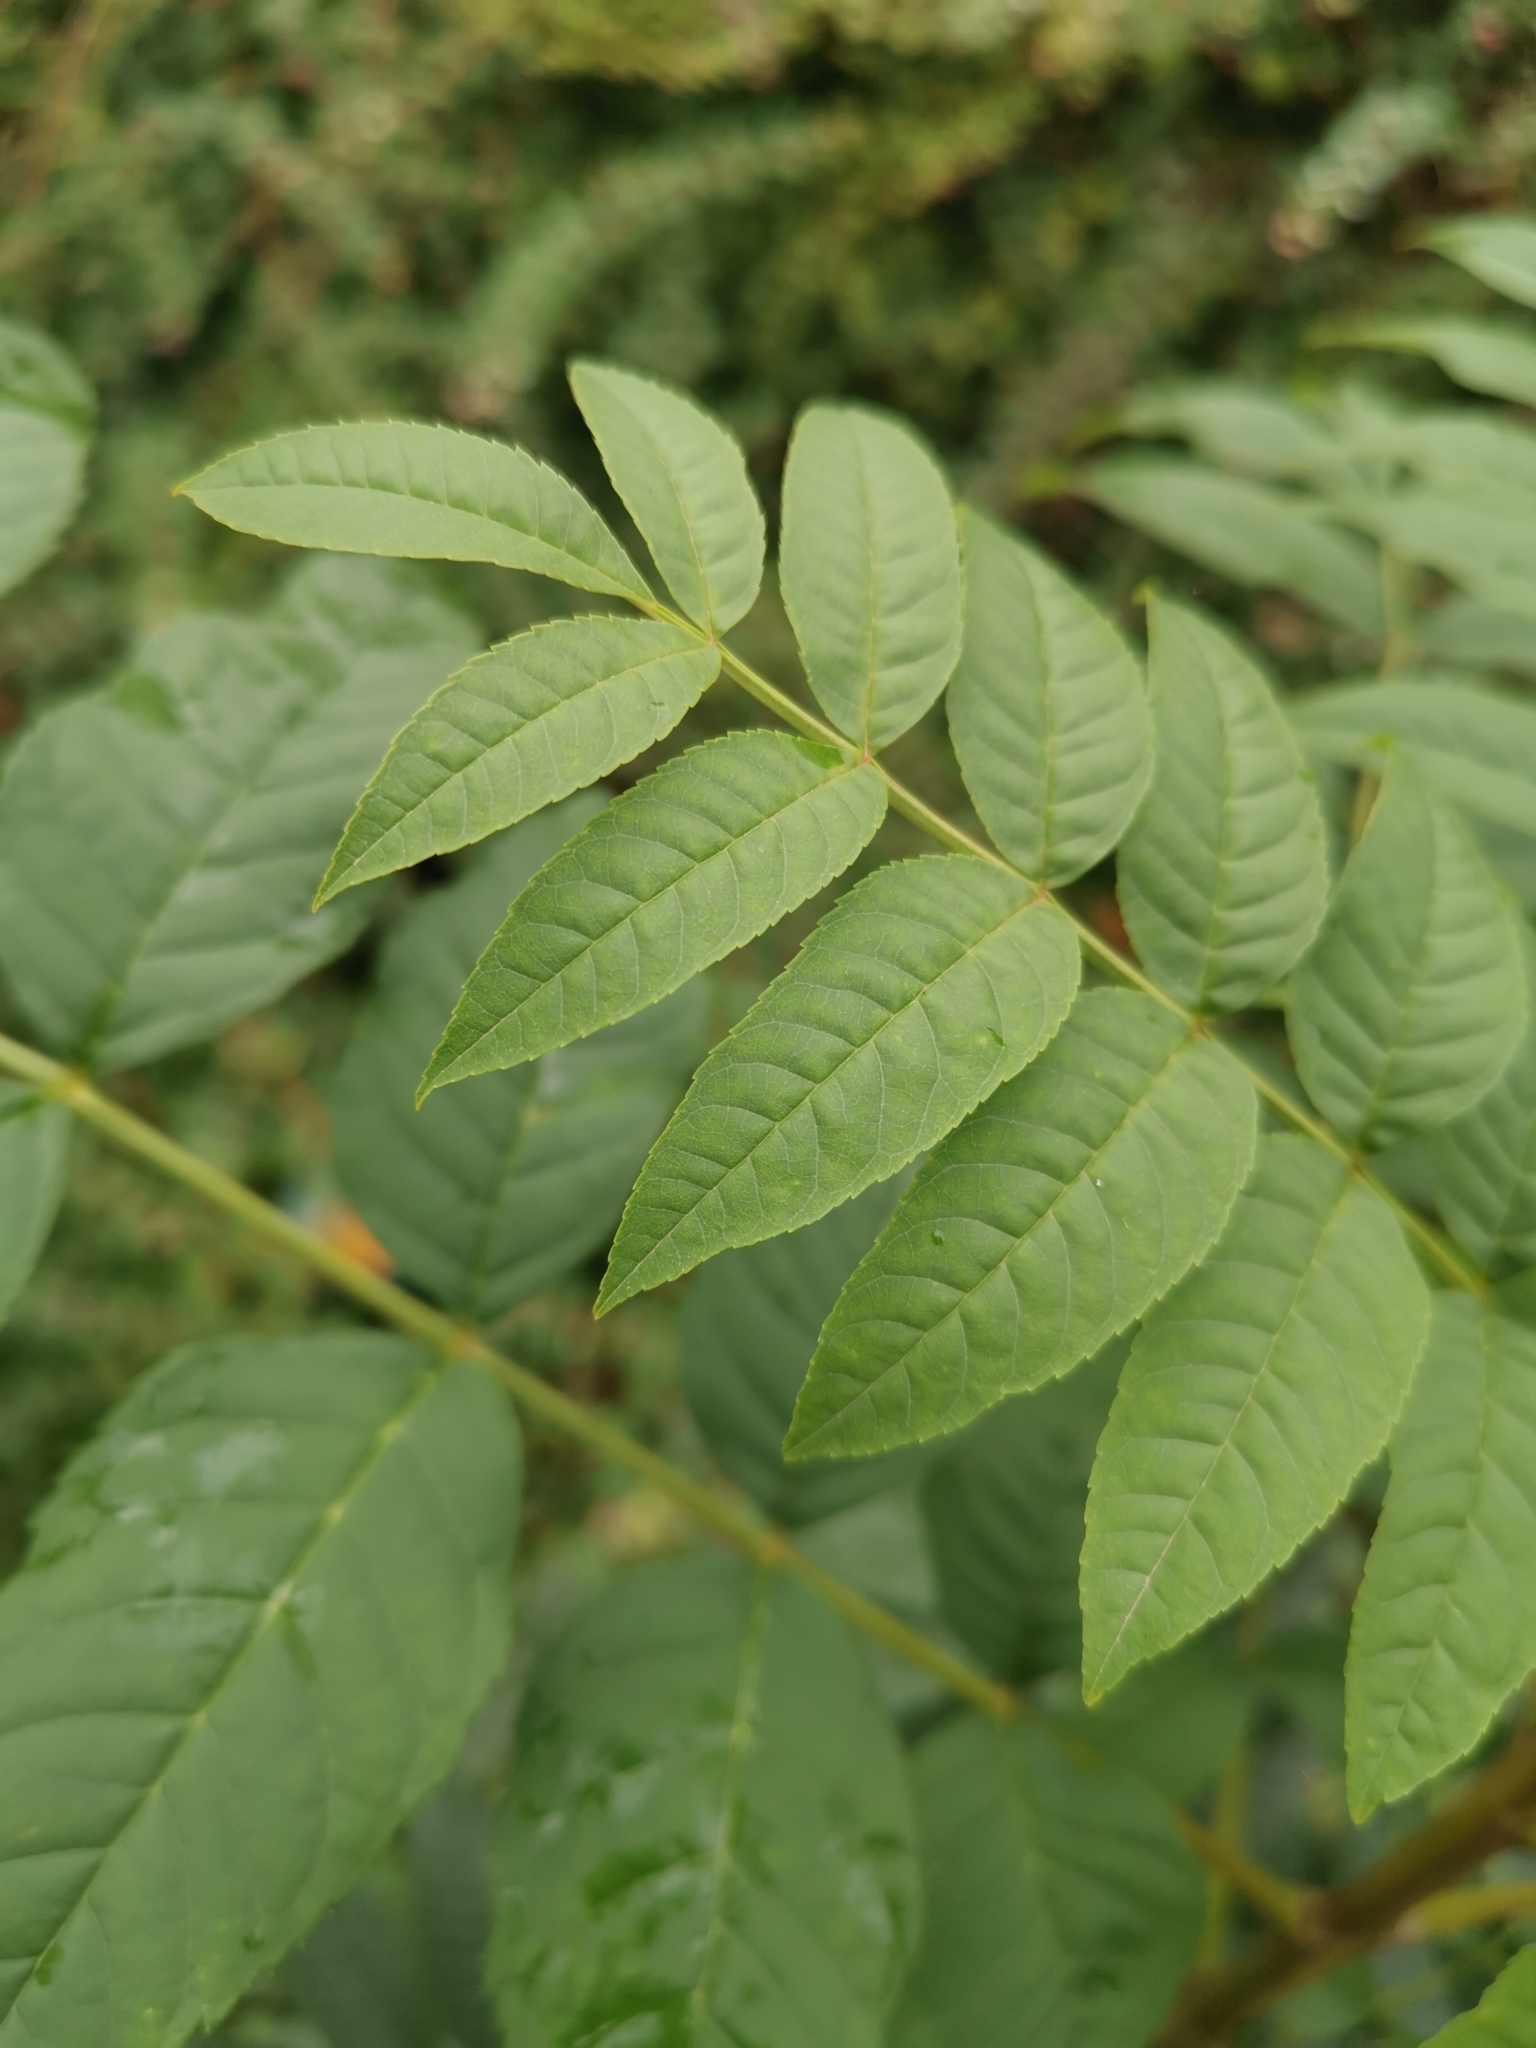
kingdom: Plantae
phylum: Tracheophyta
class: Magnoliopsida
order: Lamiales
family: Oleaceae
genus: Fraxinus
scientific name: Fraxinus excelsior
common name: European ash
